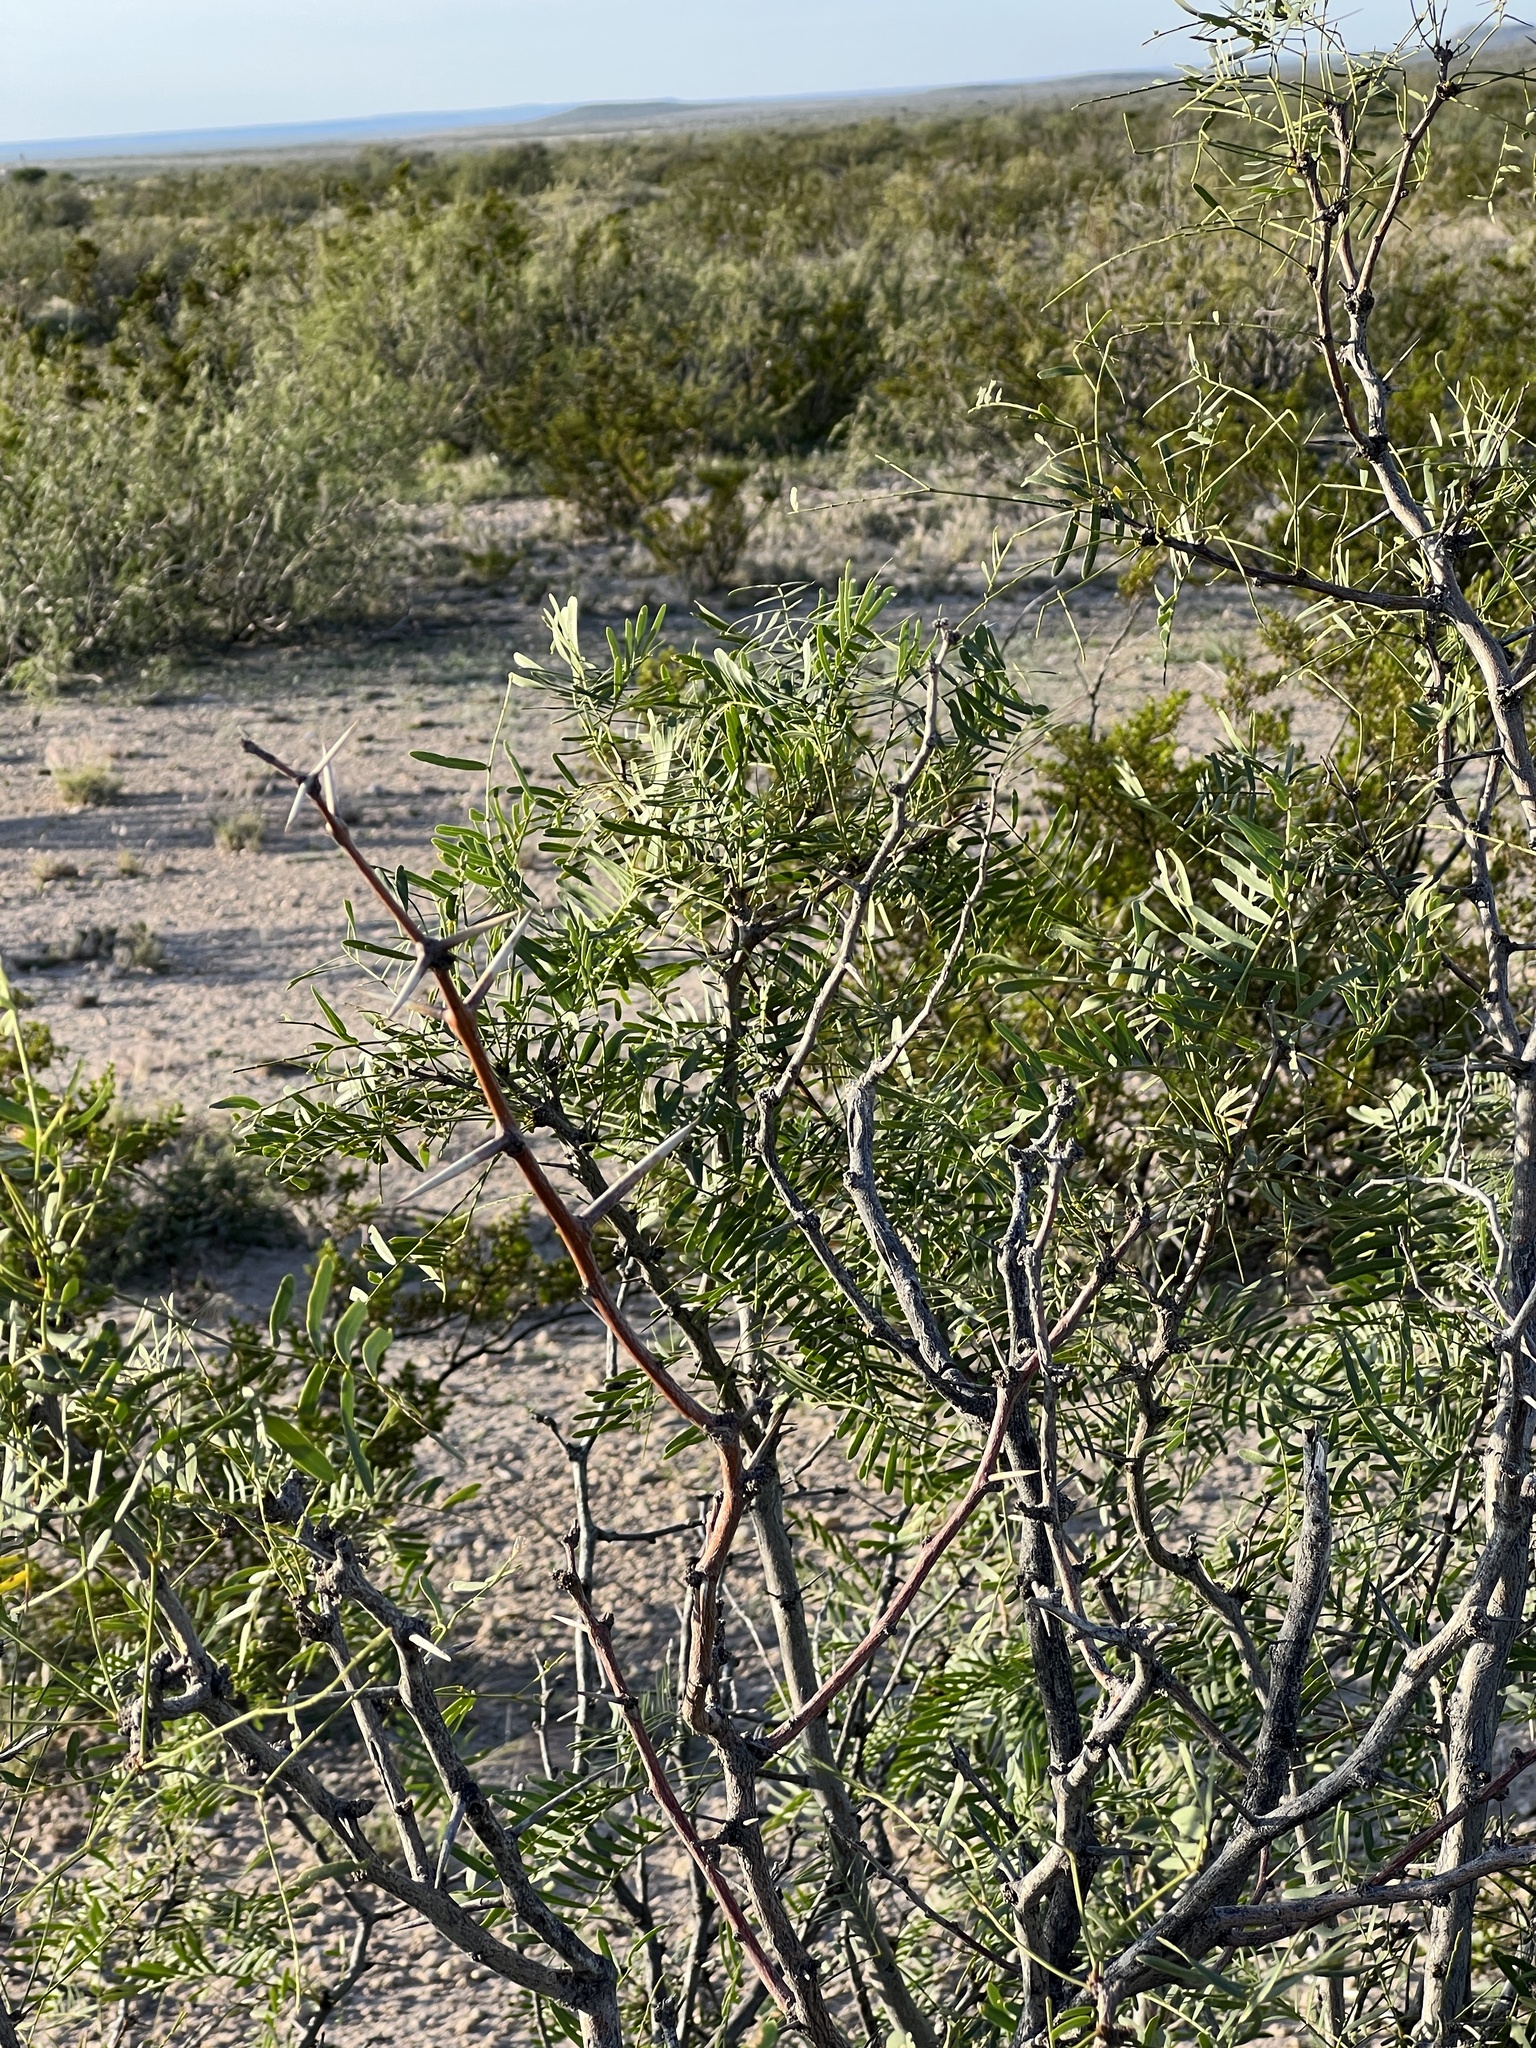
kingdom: Plantae
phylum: Tracheophyta
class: Magnoliopsida
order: Fabales
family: Fabaceae
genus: Prosopis
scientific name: Prosopis pubescens
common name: Screw-bean
